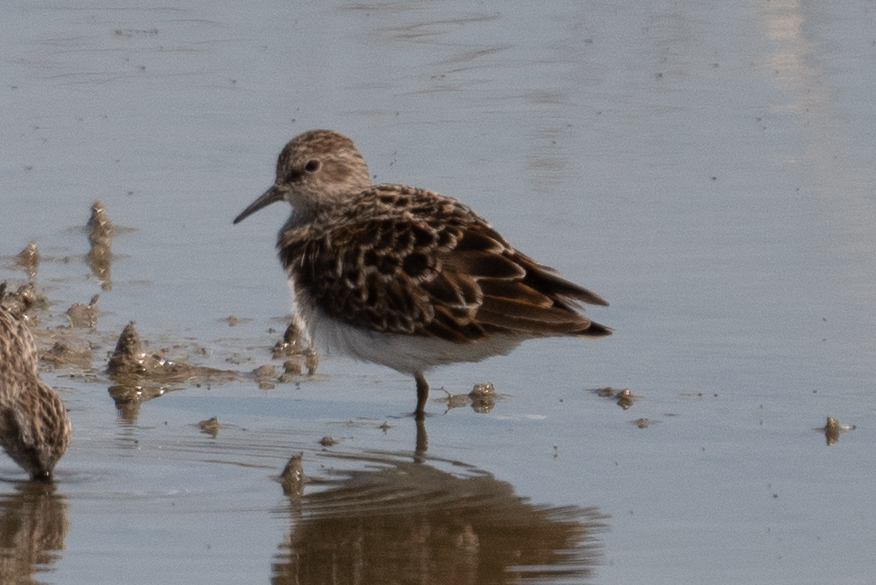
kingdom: Animalia
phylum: Chordata
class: Aves
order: Charadriiformes
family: Scolopacidae
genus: Calidris
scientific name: Calidris minutilla
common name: Least sandpiper
